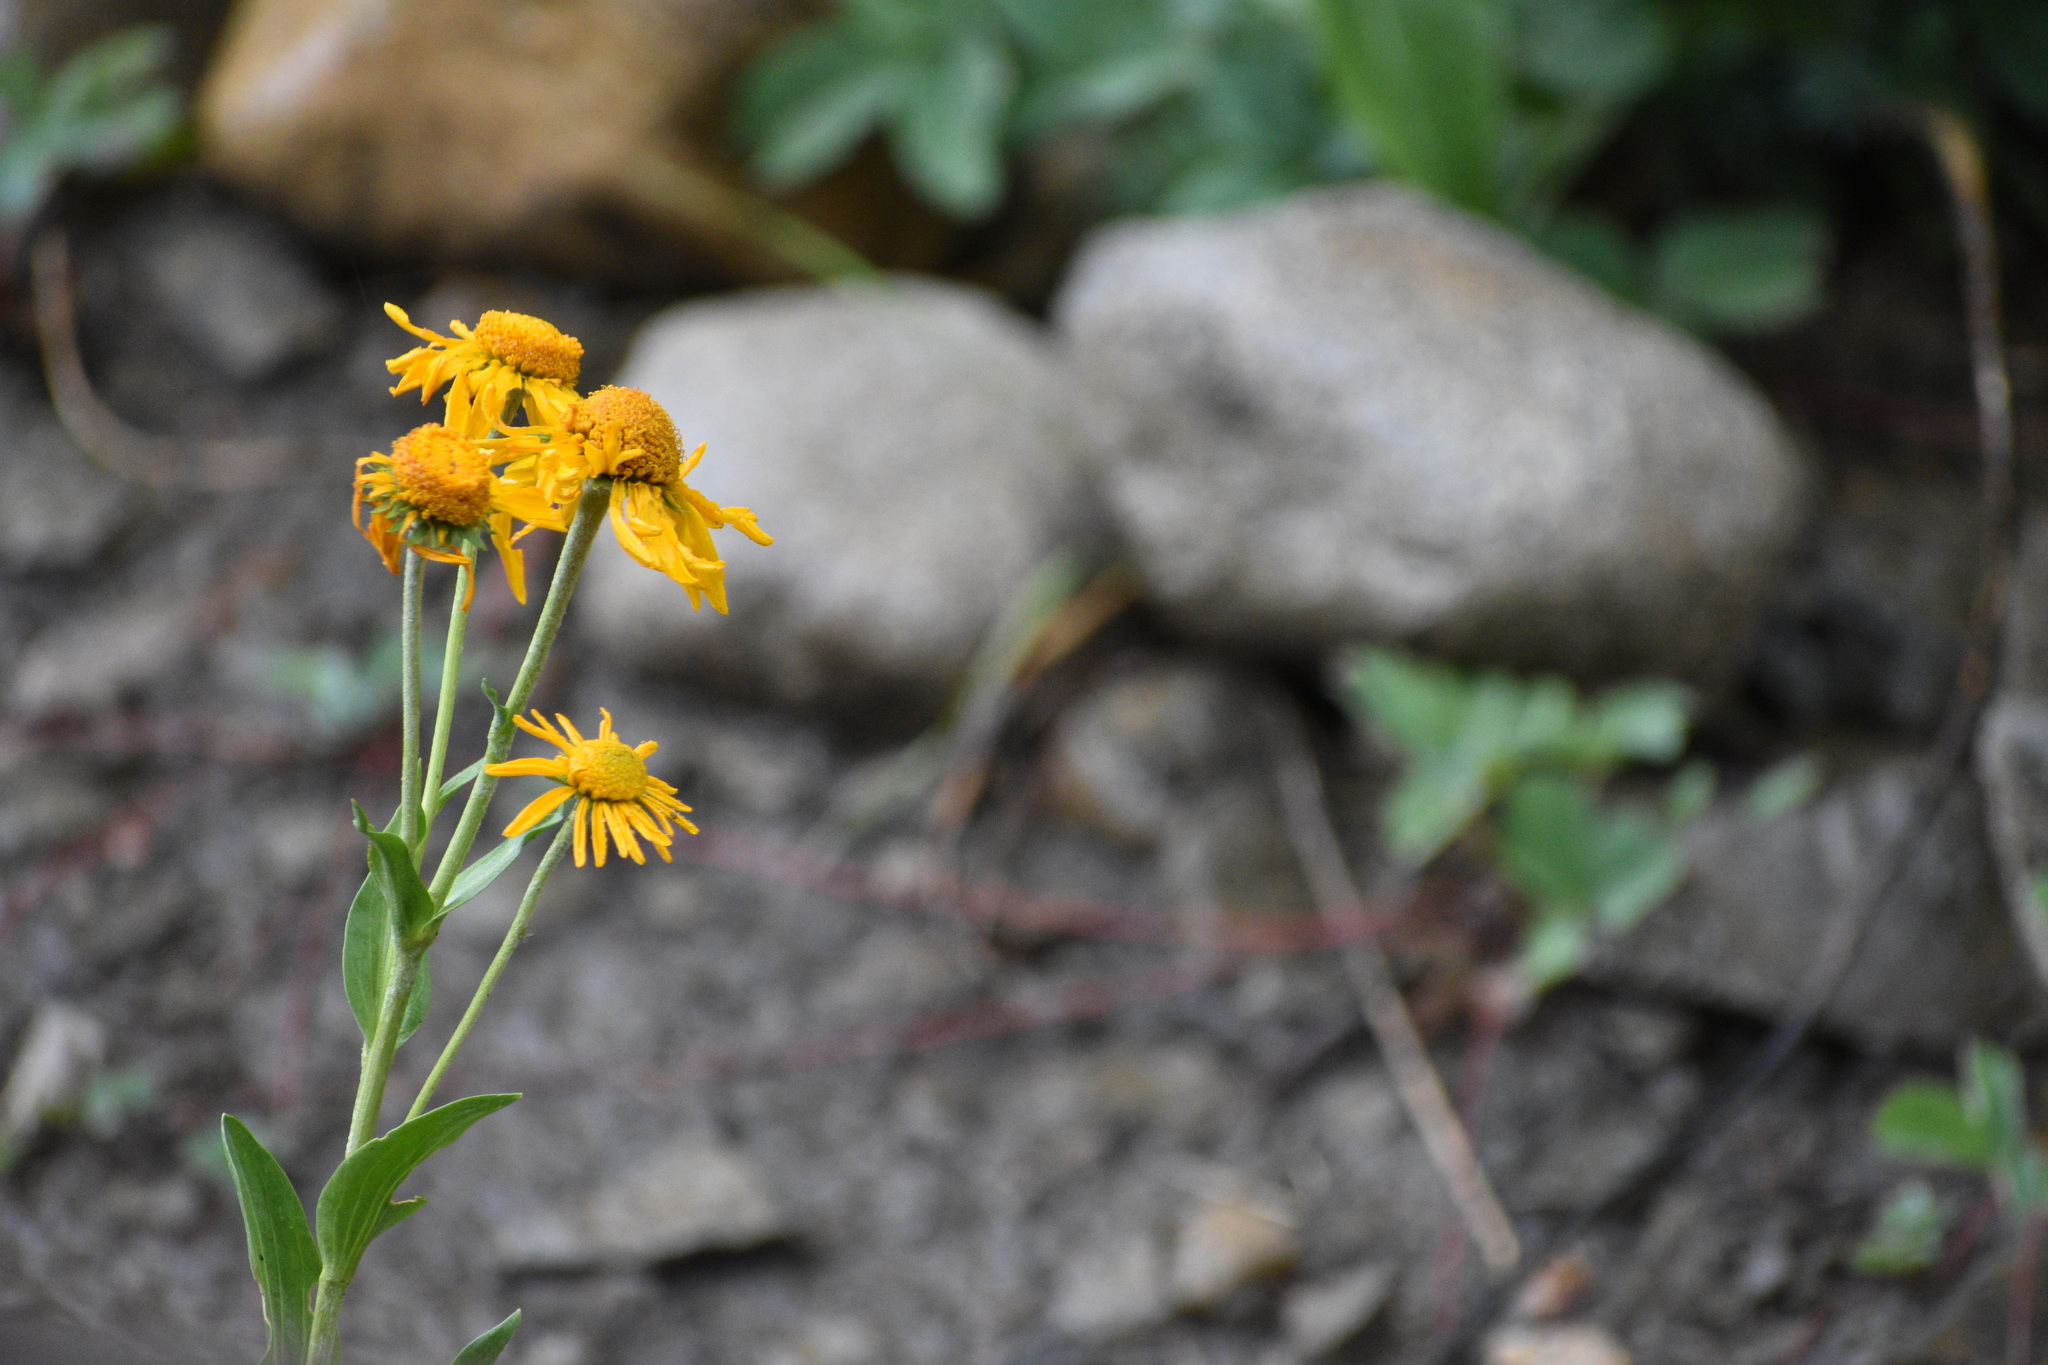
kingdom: Plantae
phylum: Tracheophyta
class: Magnoliopsida
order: Asterales
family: Asteraceae
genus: Hymenoxys
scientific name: Hymenoxys hoopesii
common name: Orange-sneezeweed
